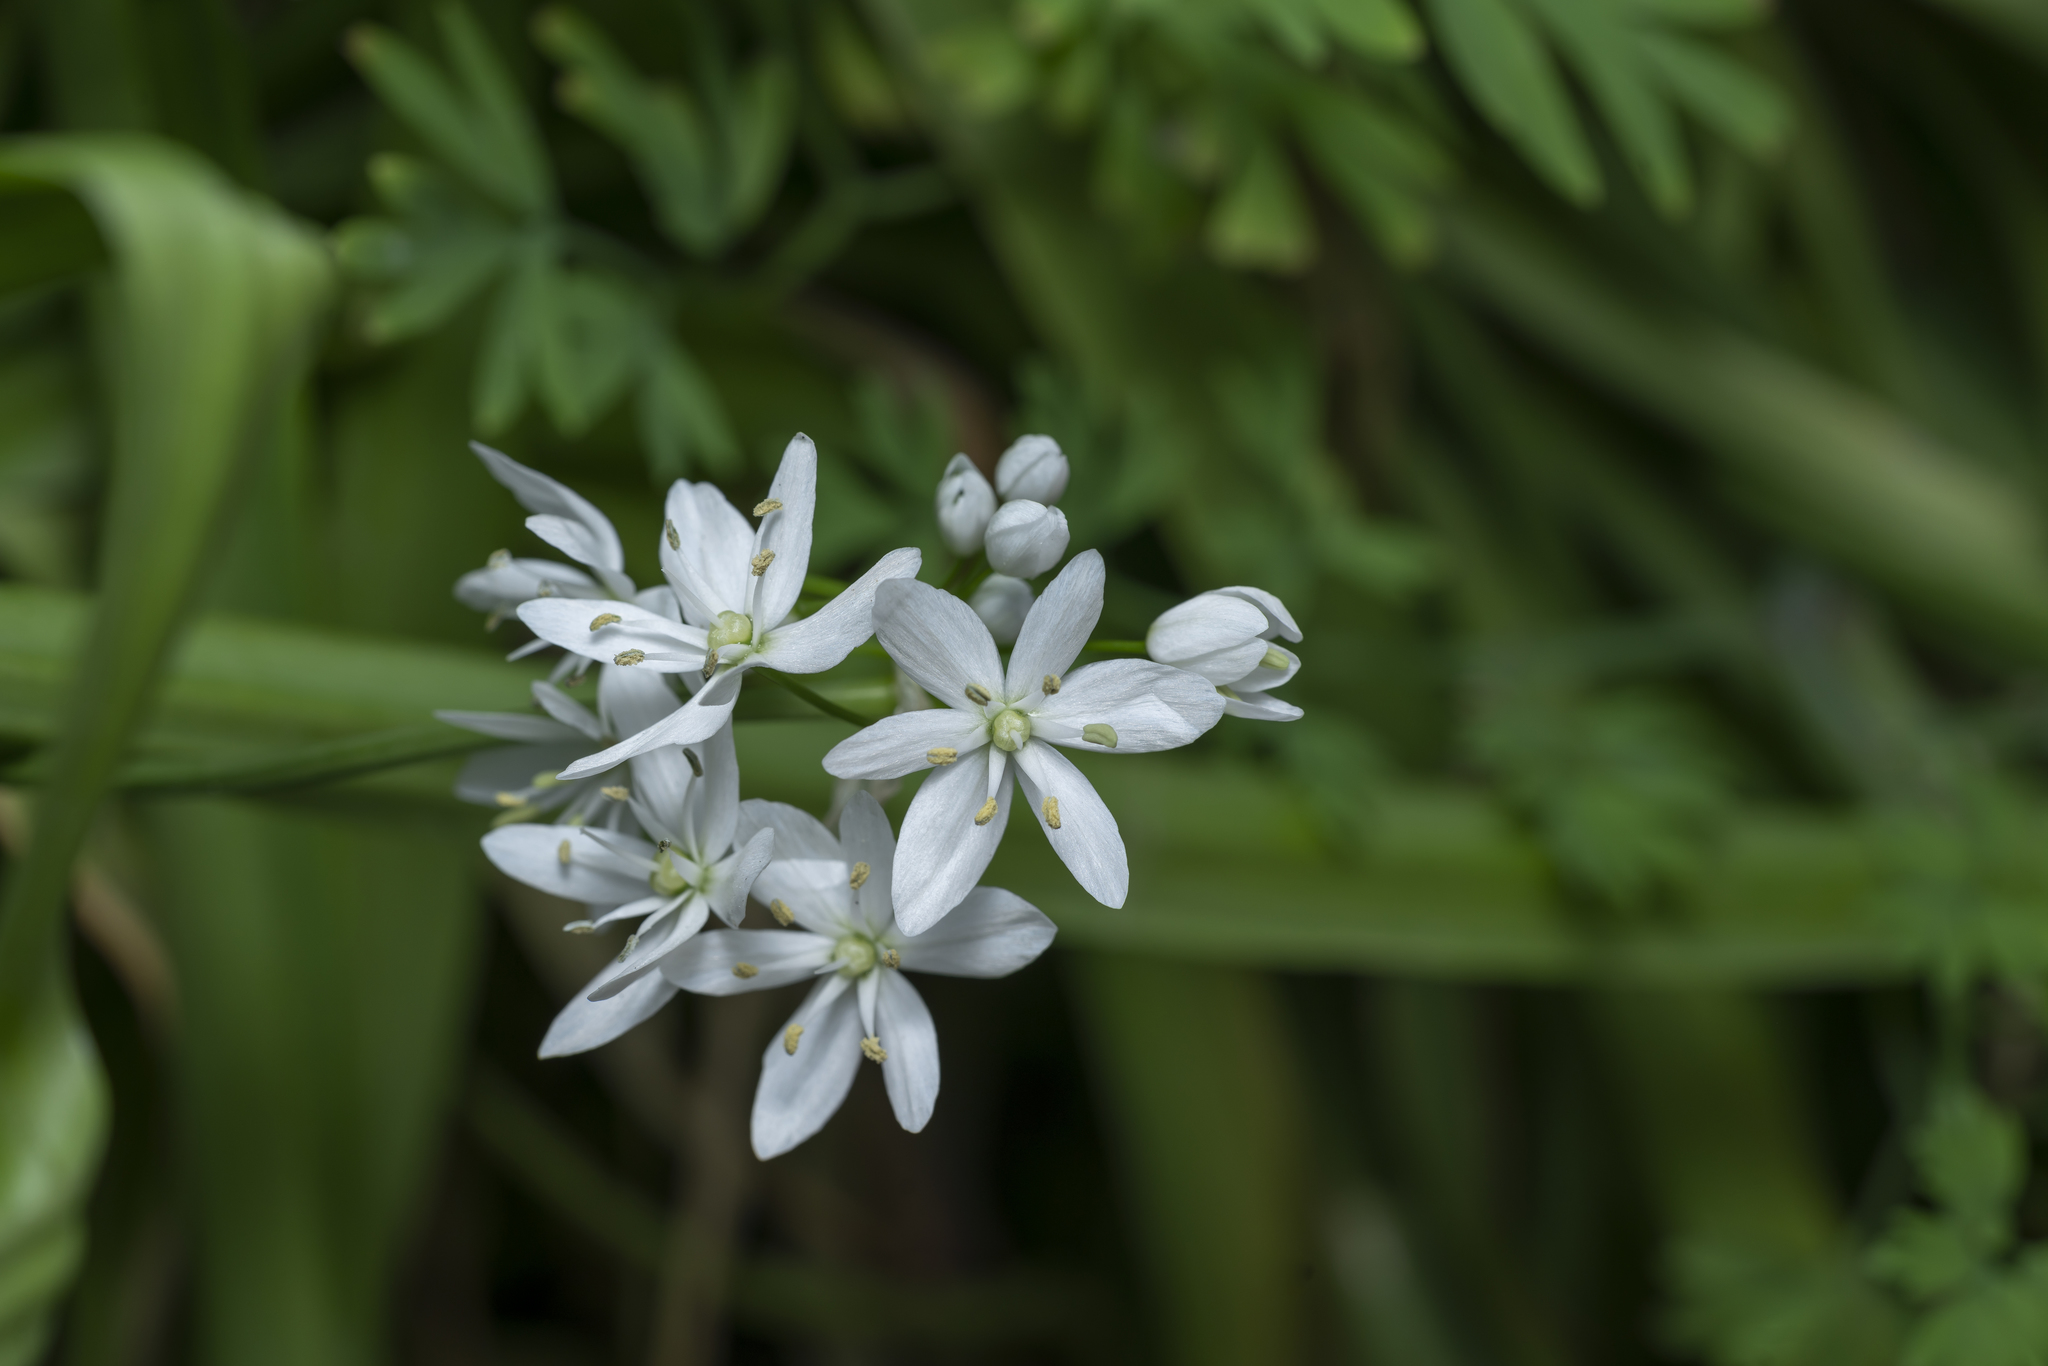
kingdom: Plantae
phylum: Tracheophyta
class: Liliopsida
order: Asparagales
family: Amaryllidaceae
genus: Allium
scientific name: Allium neapolitanum
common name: Neapolitan garlic
